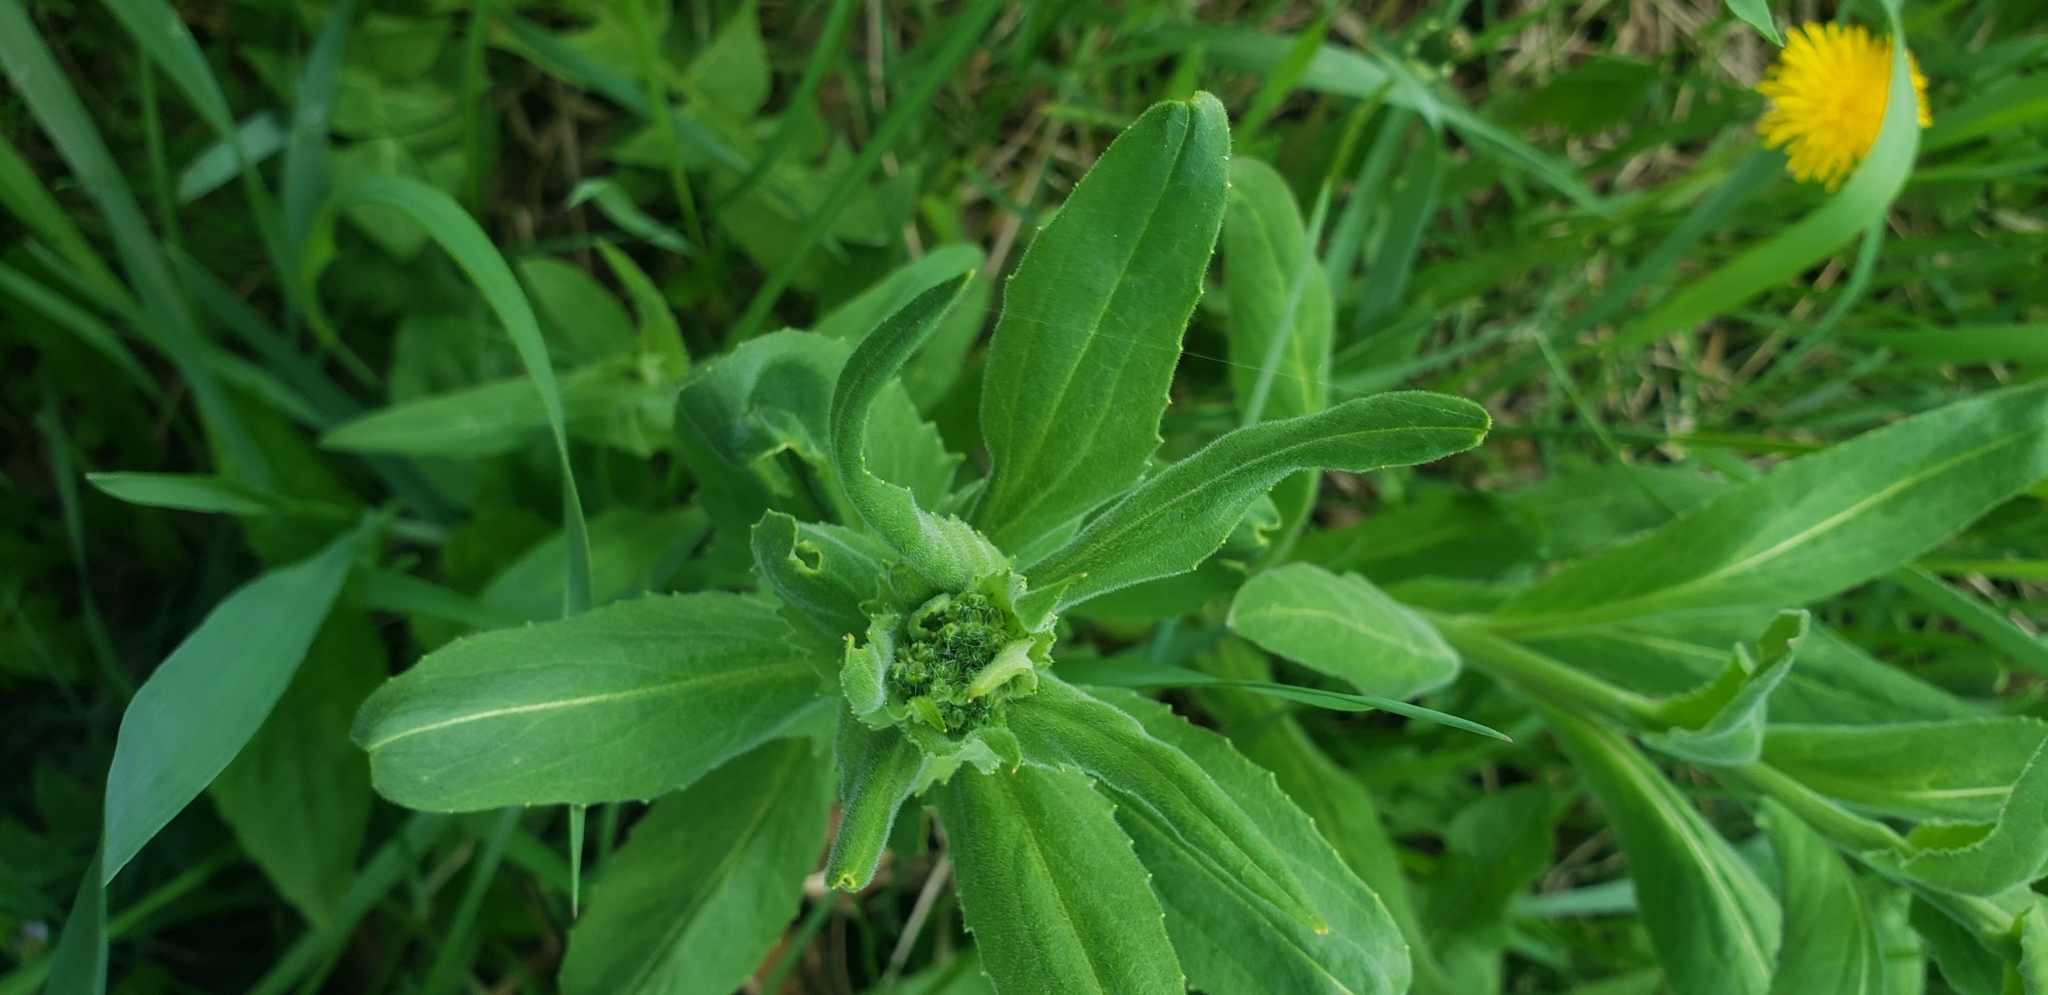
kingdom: Plantae
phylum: Tracheophyta
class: Magnoliopsida
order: Brassicales
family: Brassicaceae
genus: Hesperis
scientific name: Hesperis matronalis
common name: Dame's-violet
